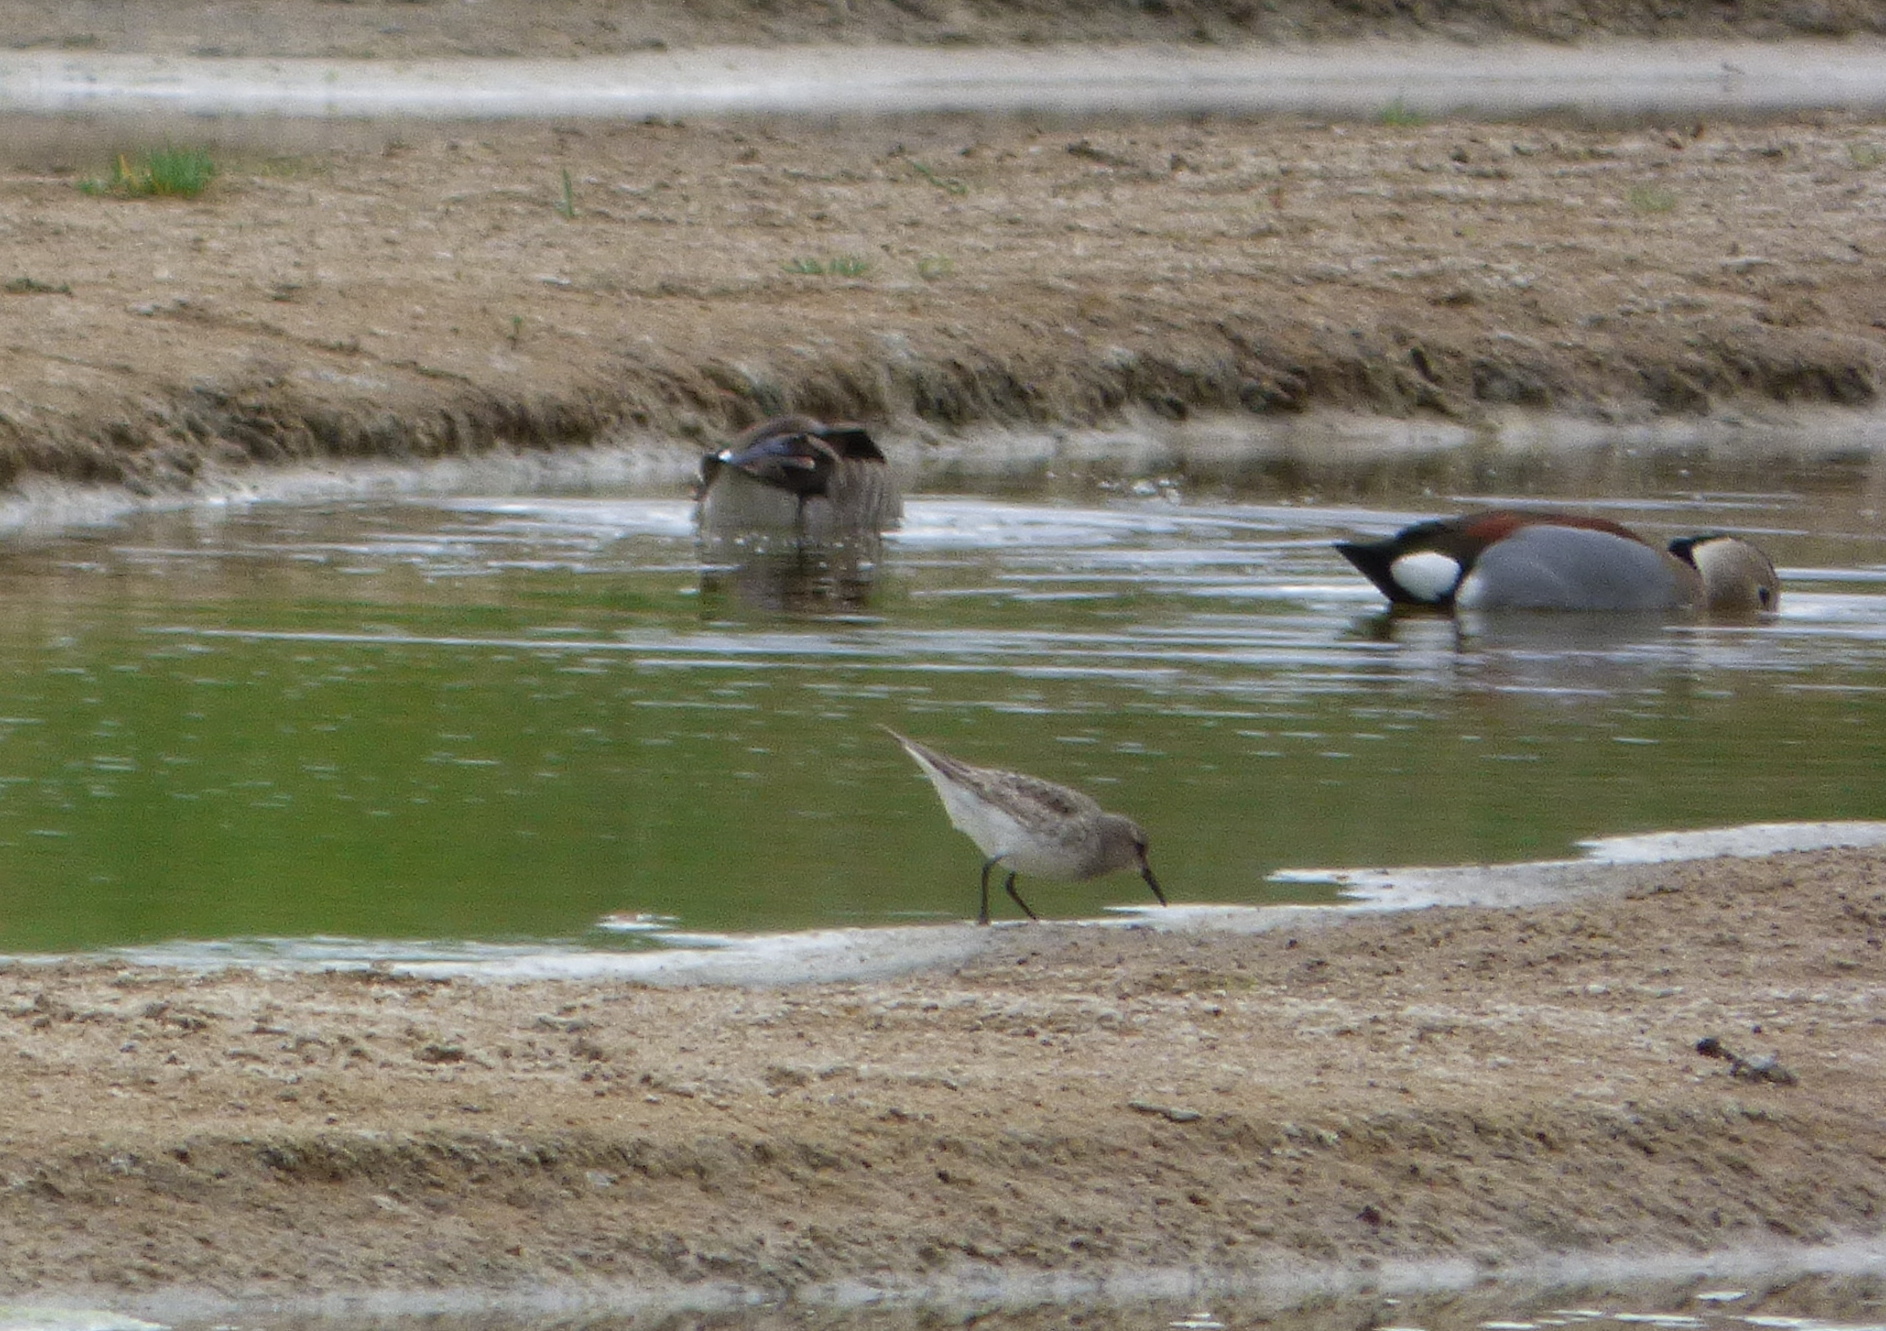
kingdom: Animalia
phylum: Chordata
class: Aves
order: Charadriiformes
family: Scolopacidae
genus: Calidris
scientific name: Calidris fuscicollis
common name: White-rumped sandpiper
